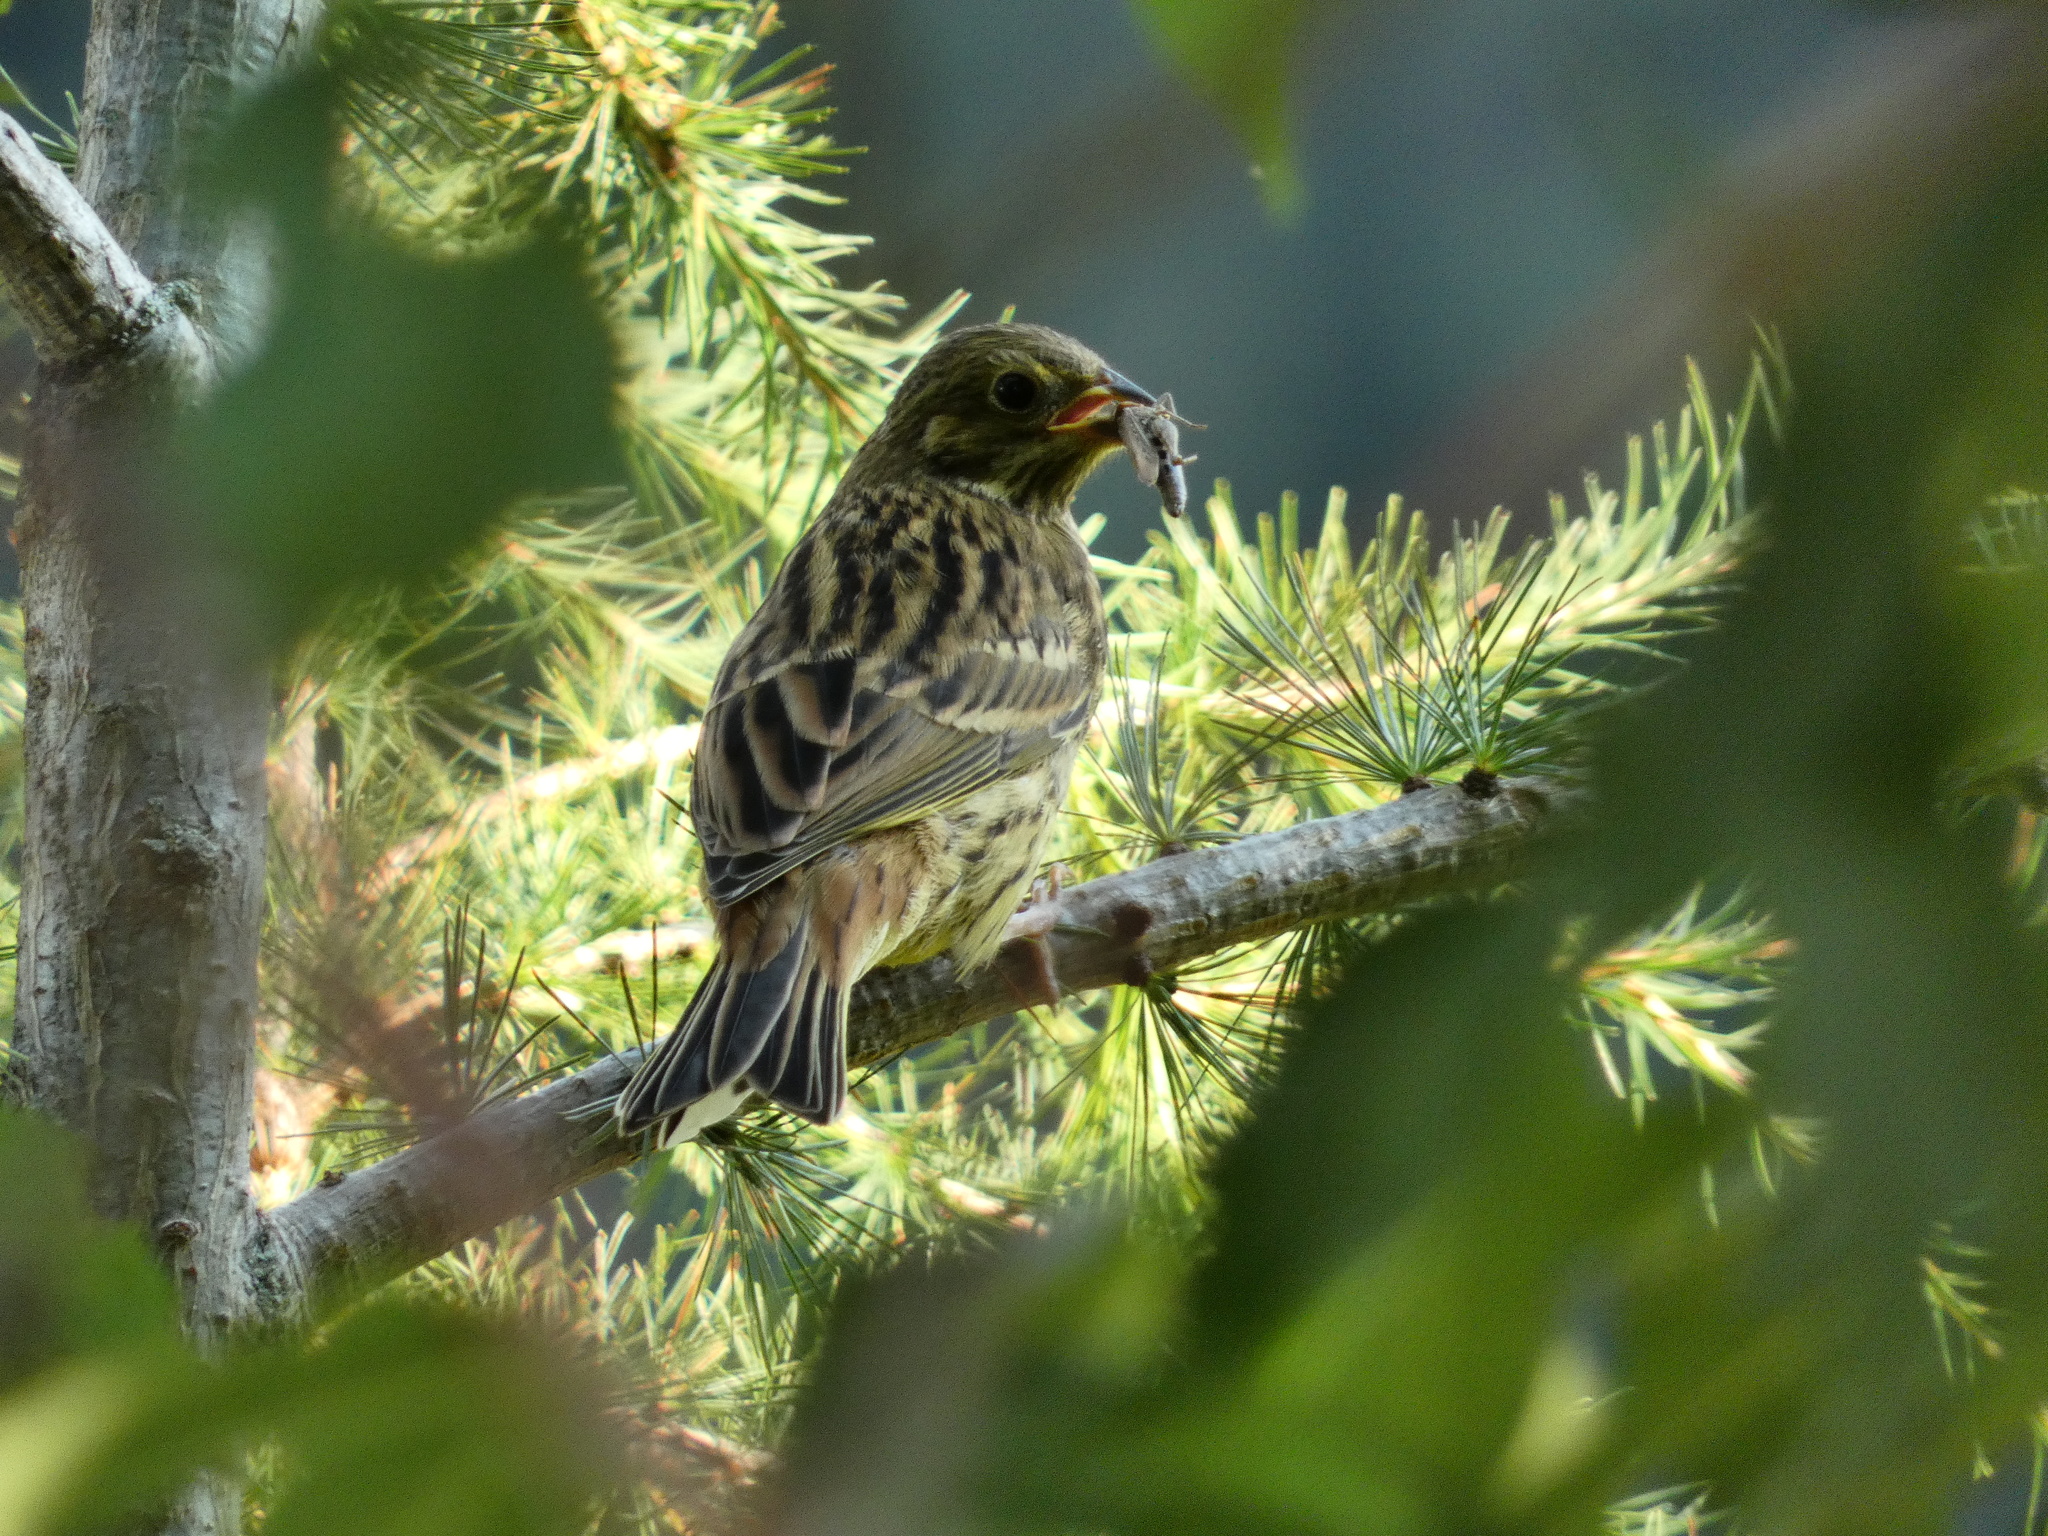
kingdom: Animalia
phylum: Chordata
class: Aves
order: Passeriformes
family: Emberizidae
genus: Emberiza
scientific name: Emberiza citrinella
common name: Yellowhammer
